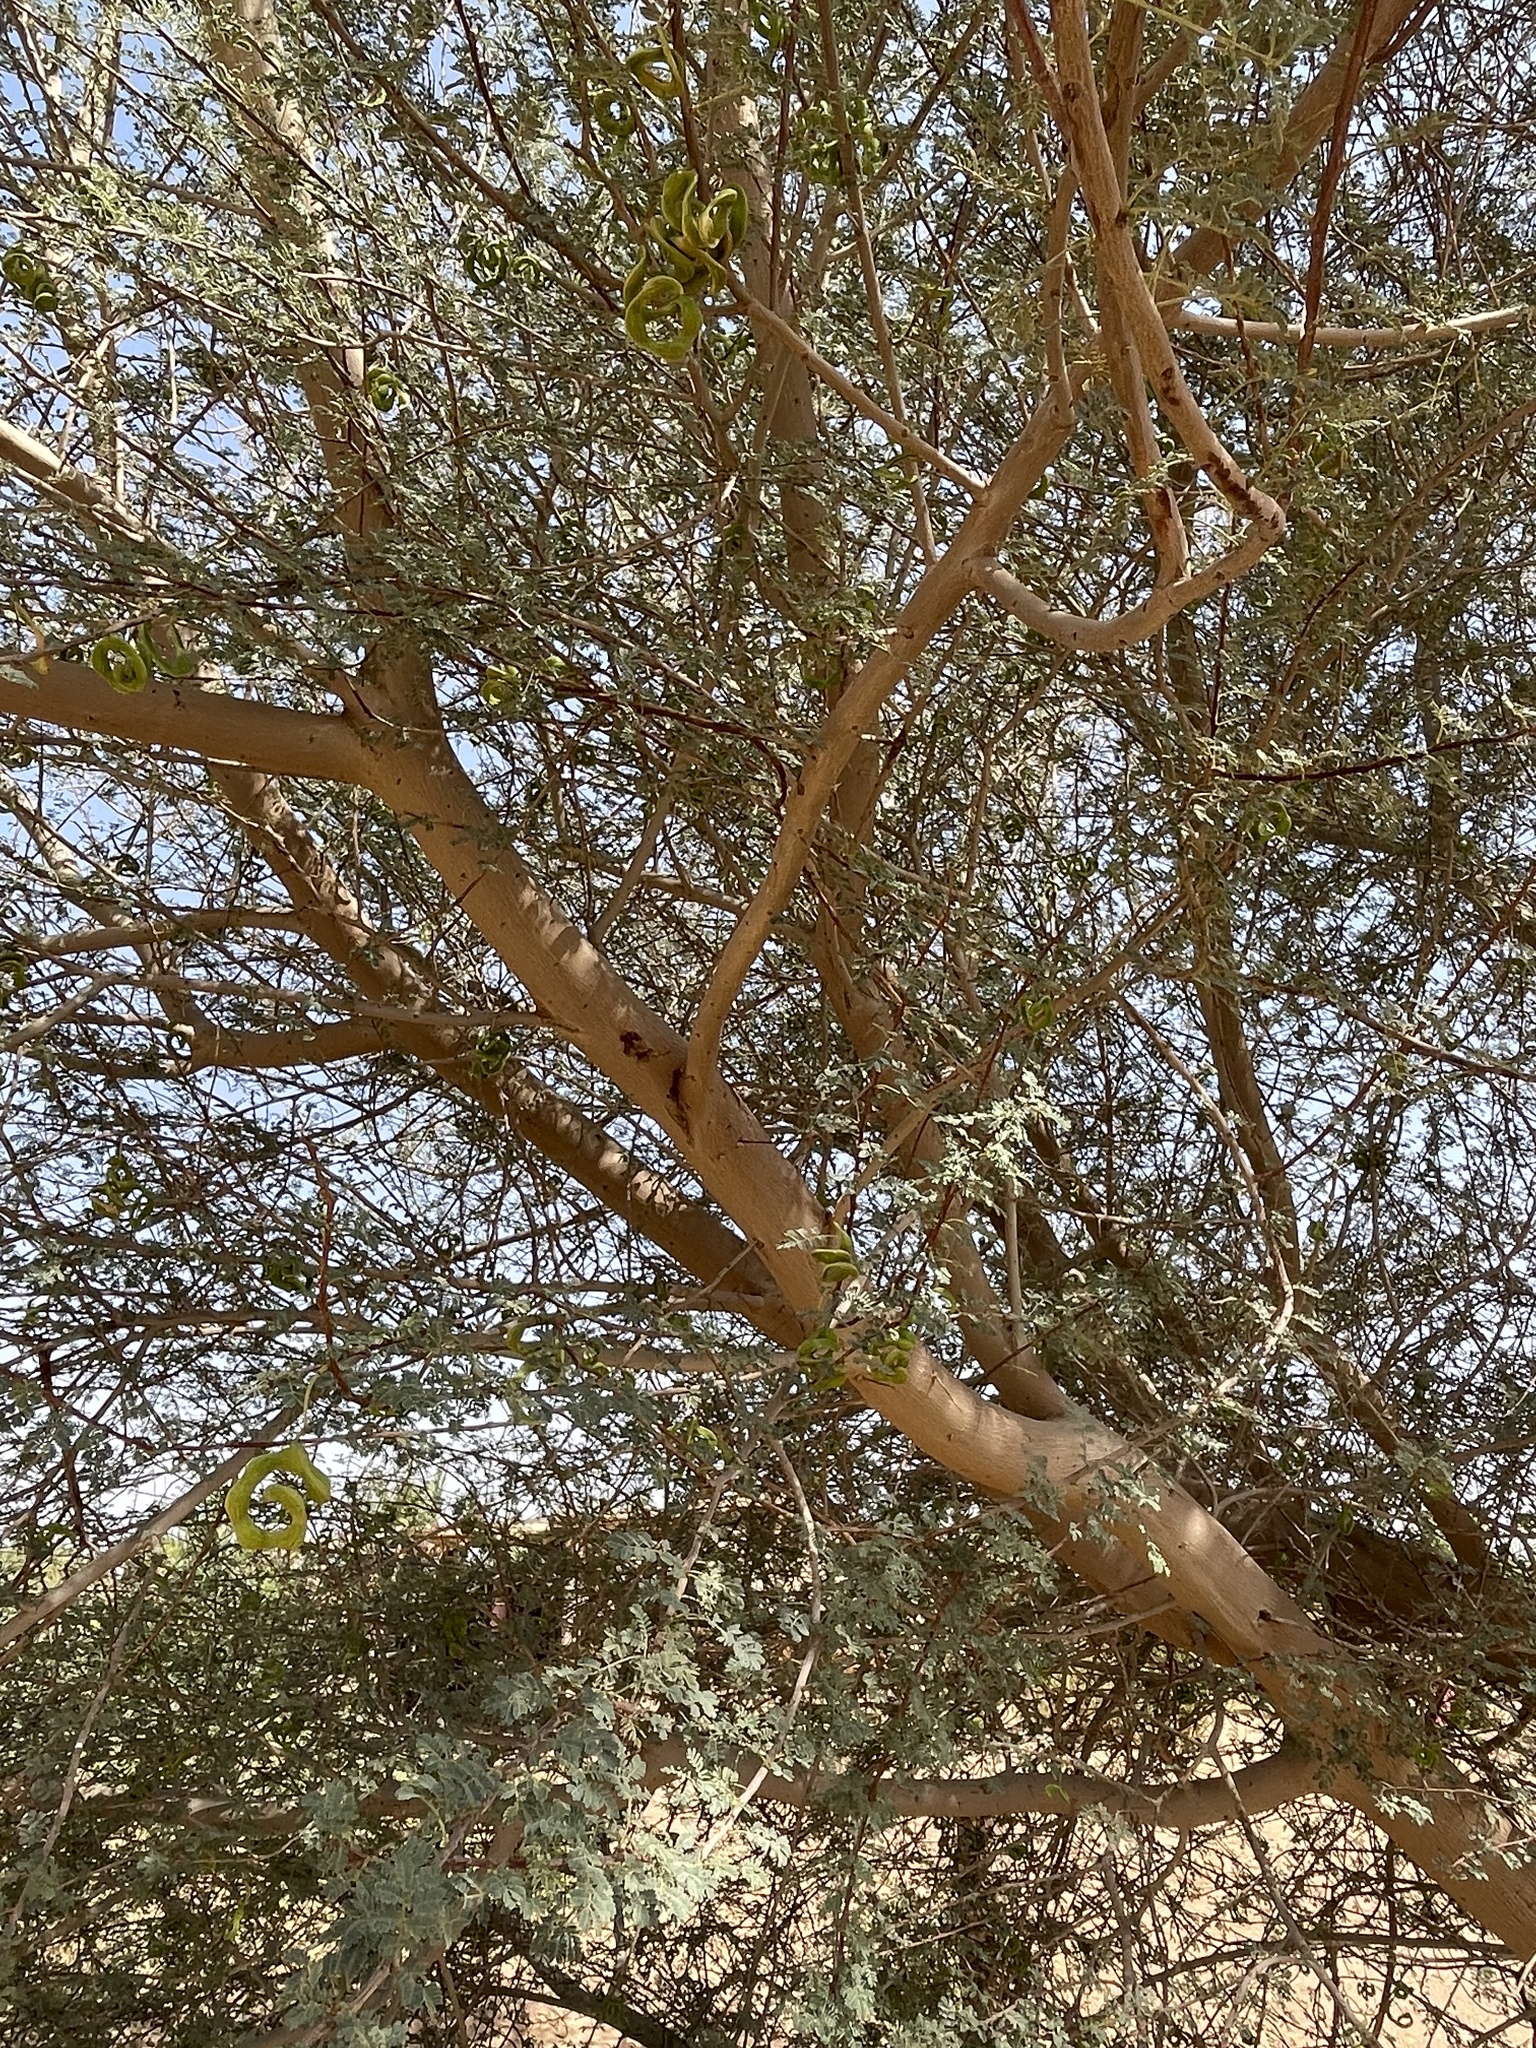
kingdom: Plantae
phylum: Tracheophyta
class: Magnoliopsida
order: Fabales
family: Fabaceae
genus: Vachellia
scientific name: Vachellia tortilis
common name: Umbrella thorn acacia
